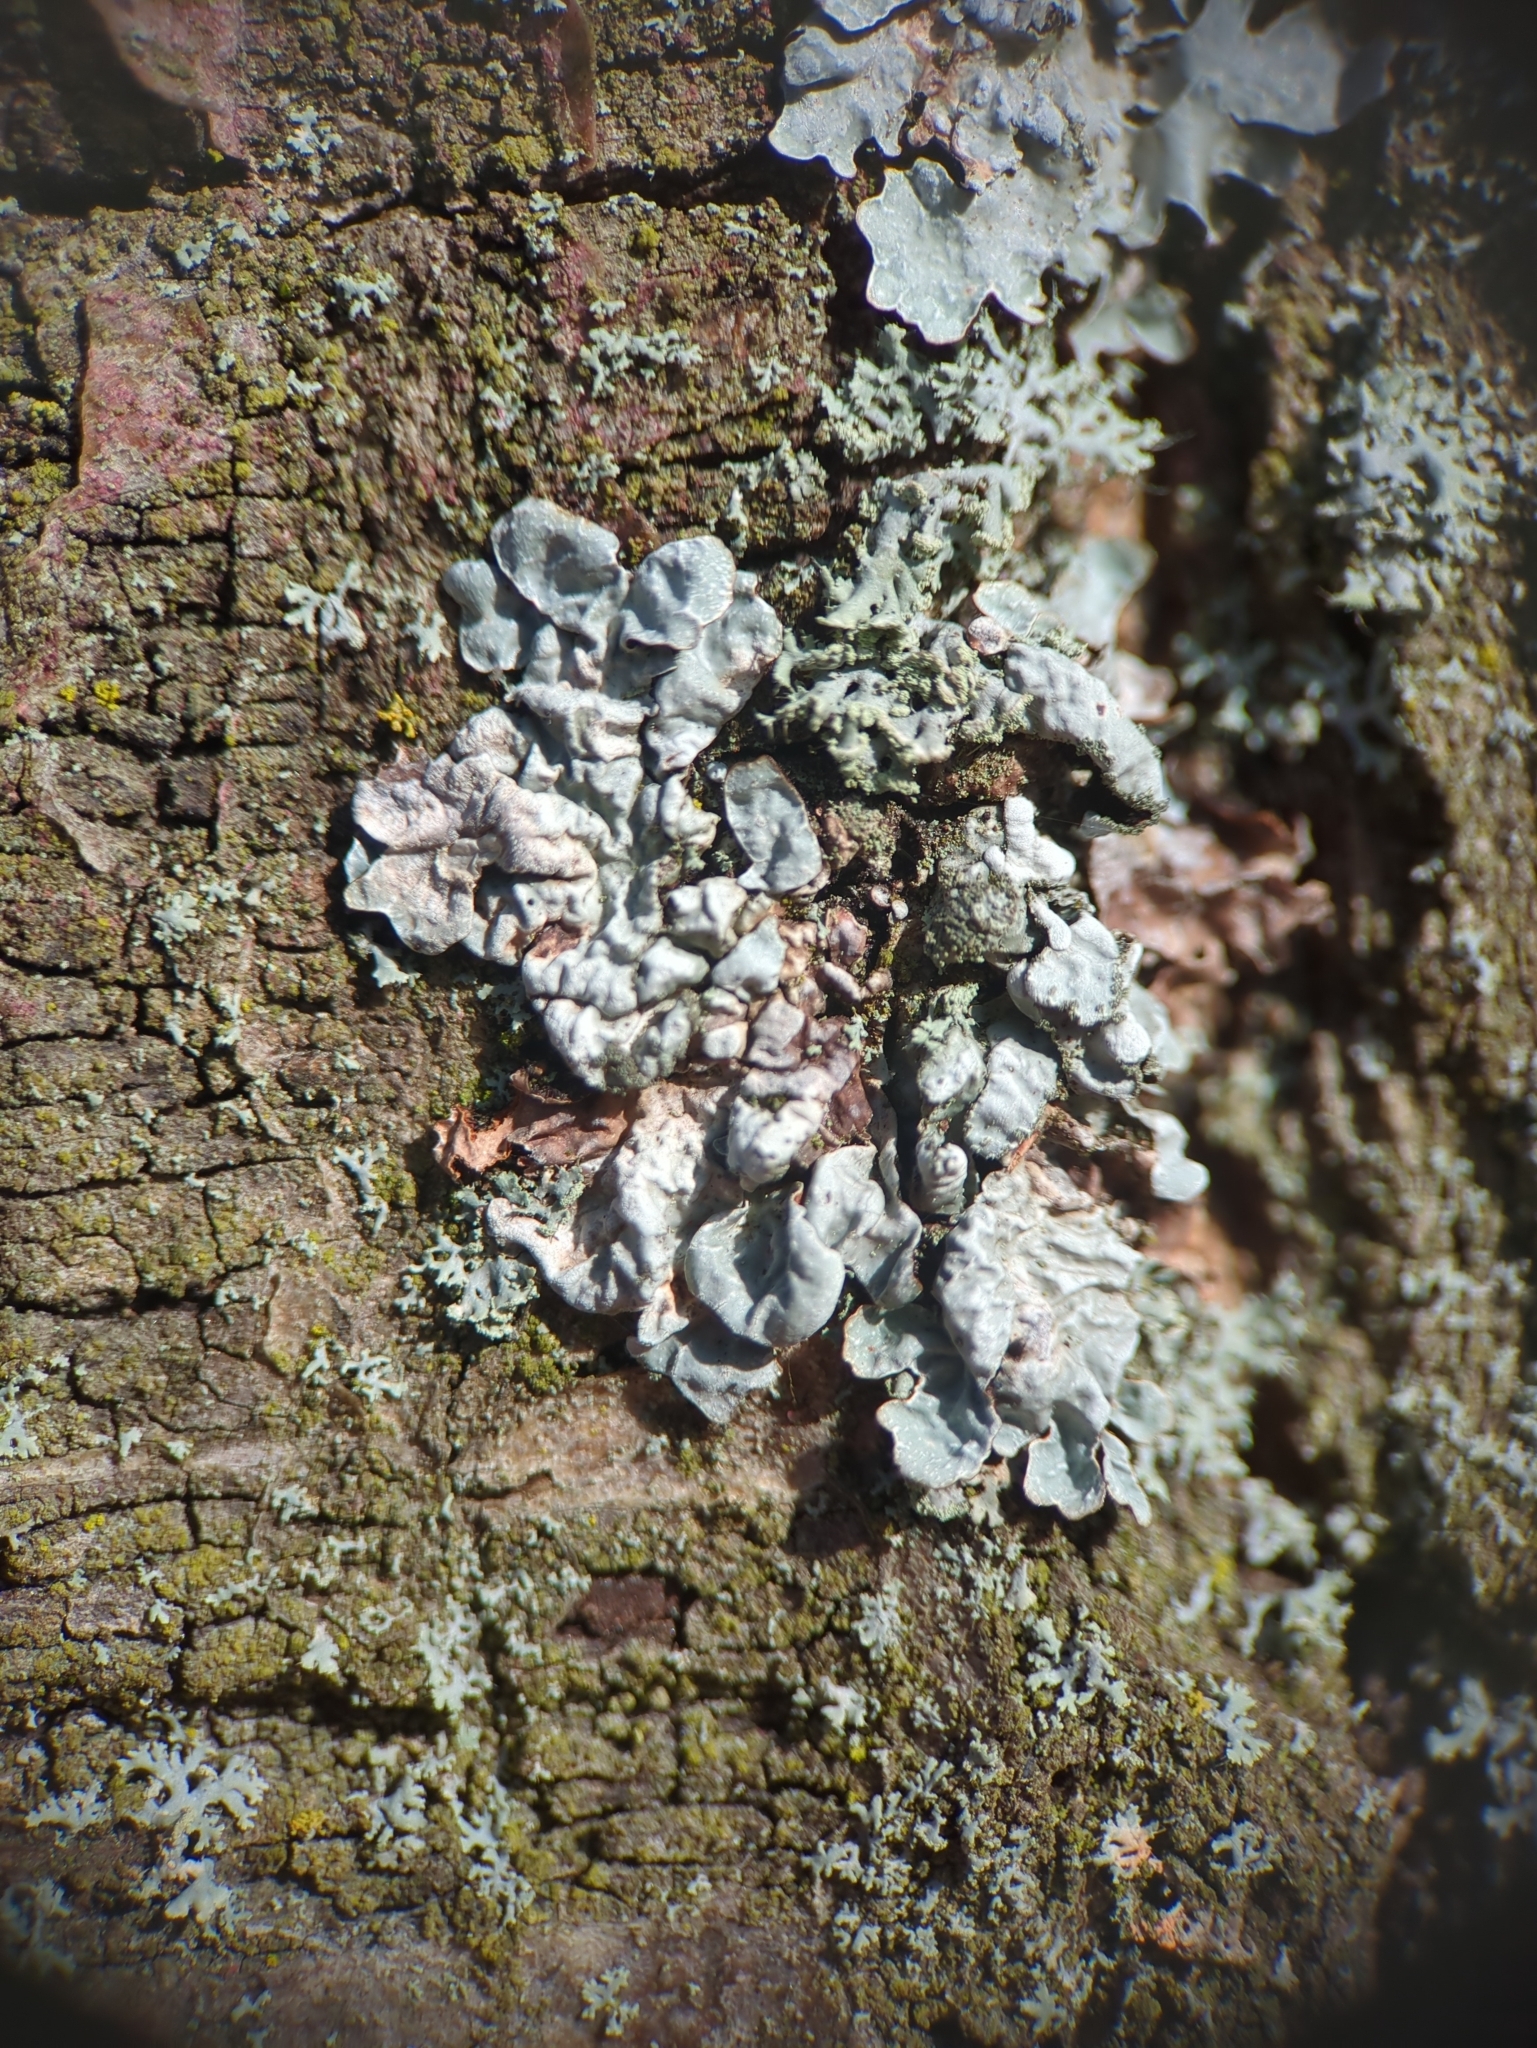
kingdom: Fungi
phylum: Ascomycota
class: Lecanoromycetes
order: Lecanorales
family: Parmeliaceae
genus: Parmelia
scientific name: Parmelia sulcata
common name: Netted shield lichen
